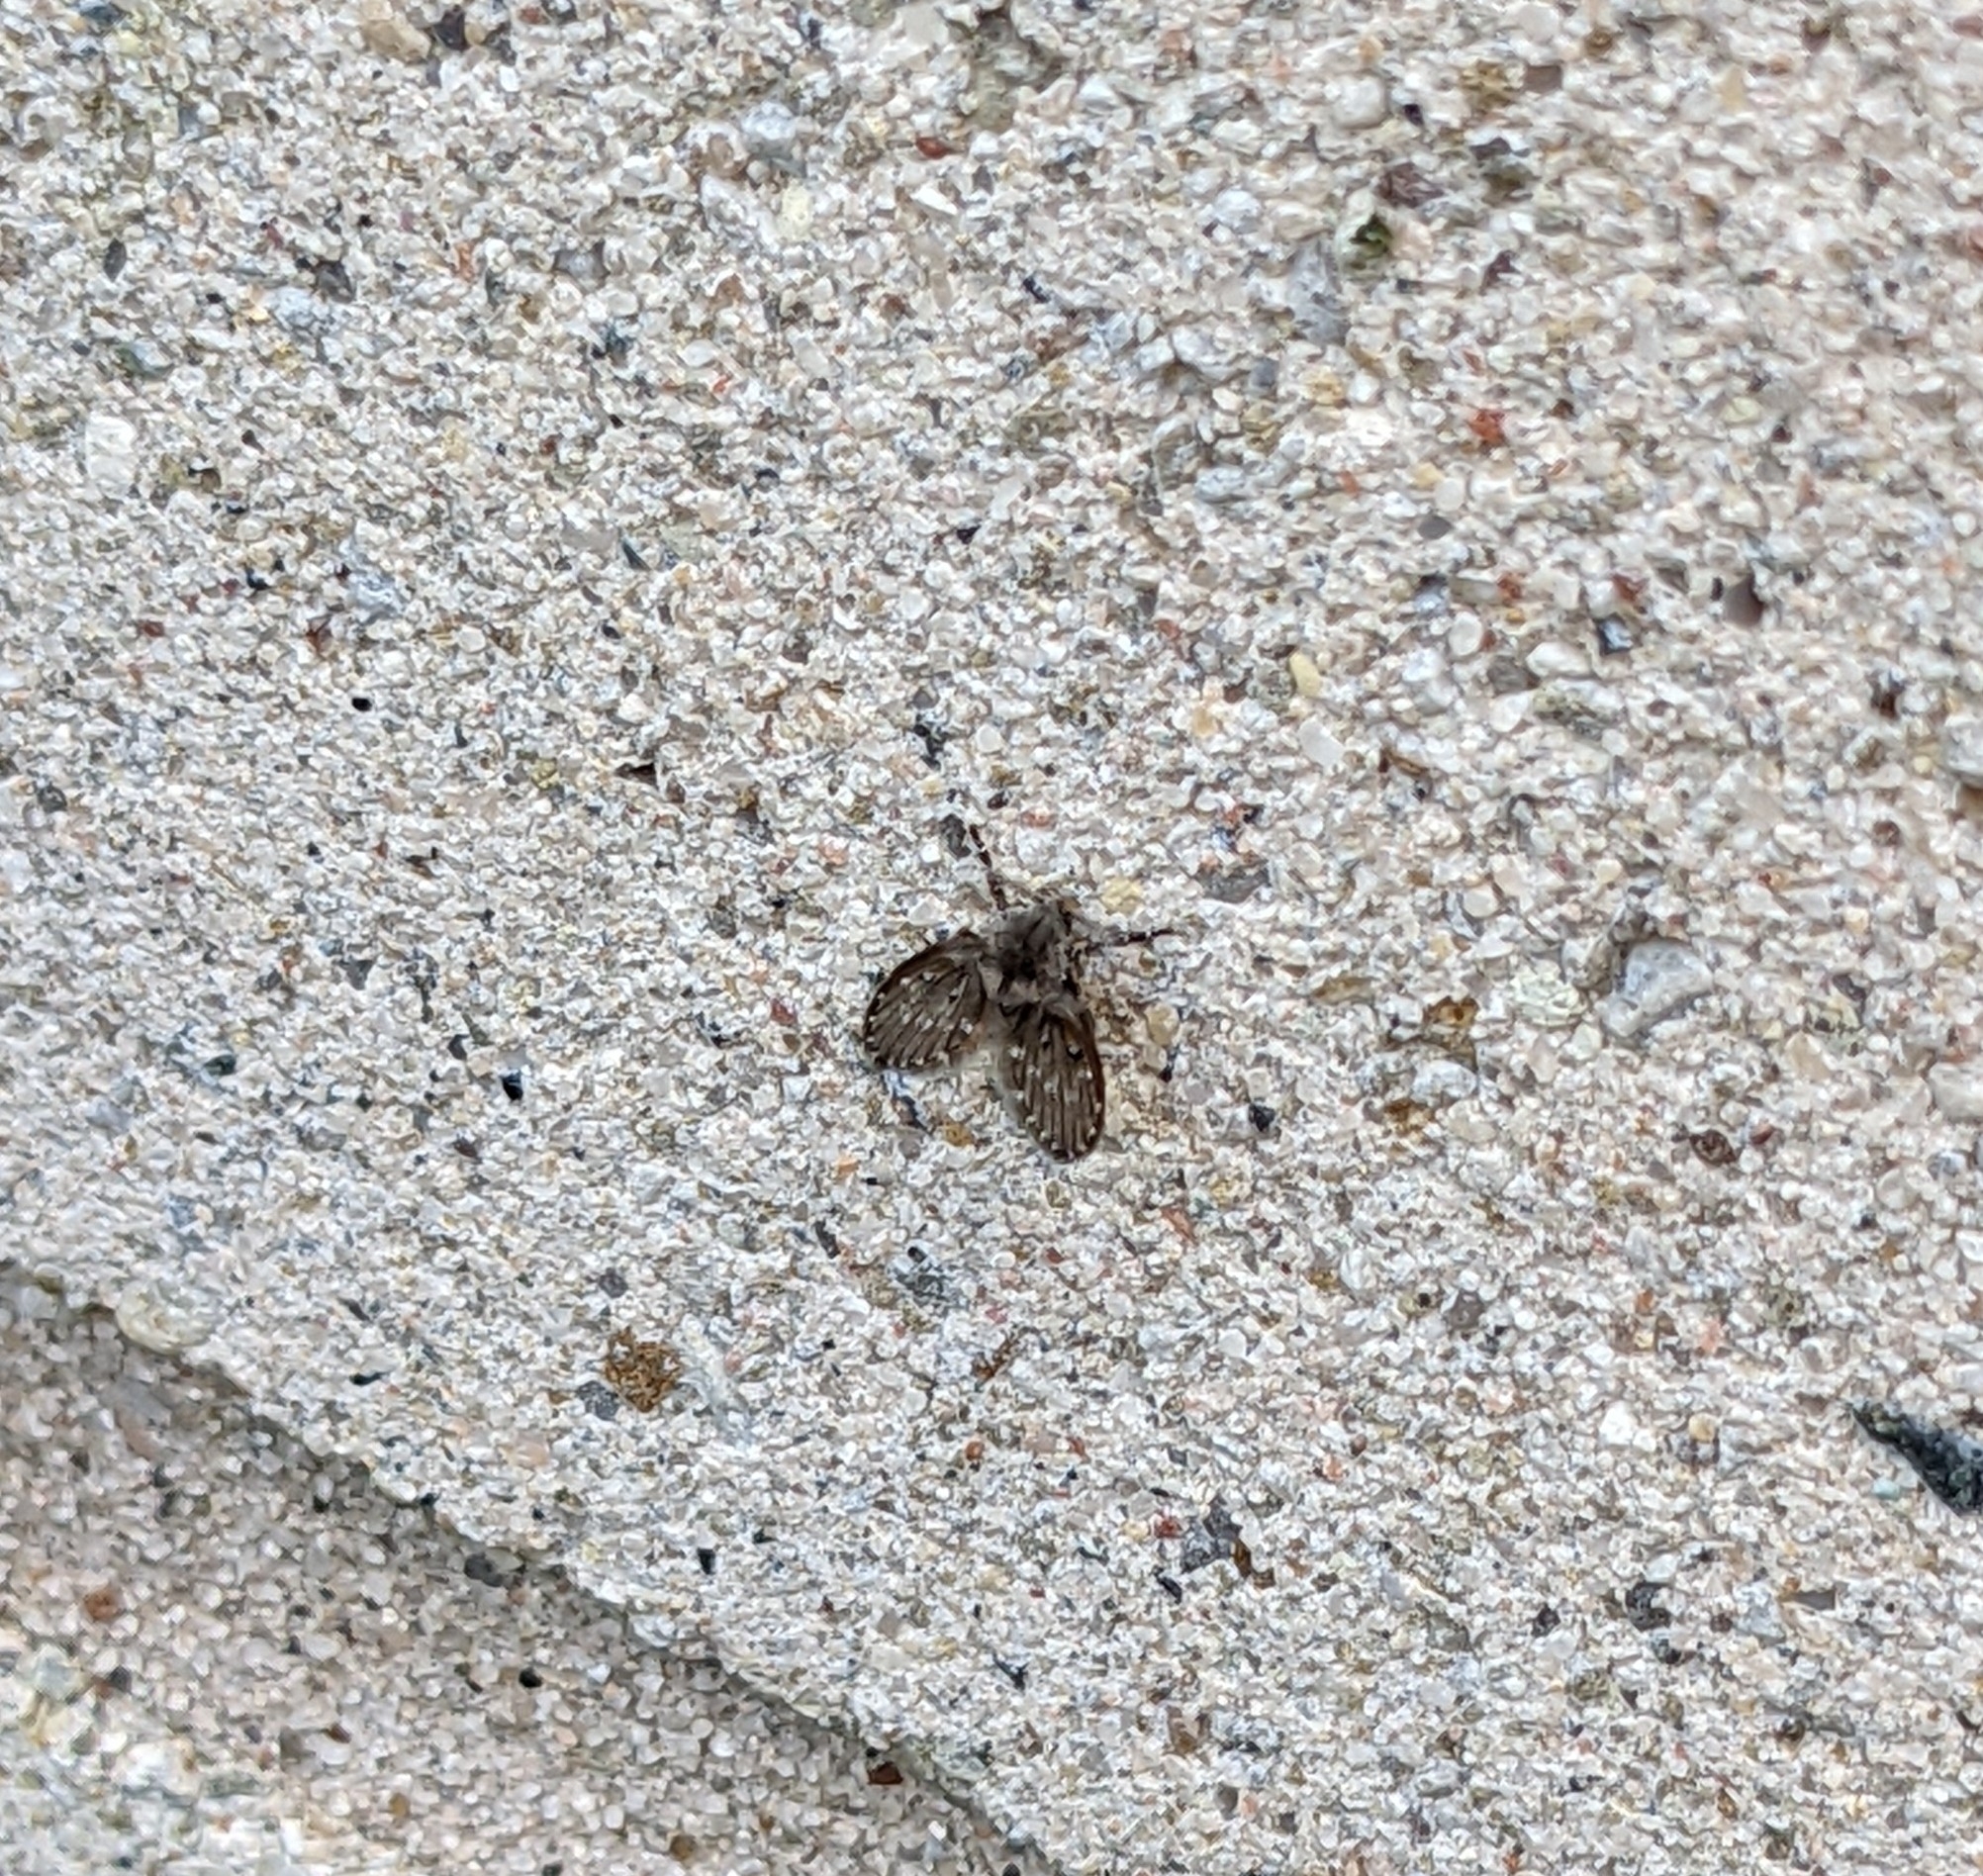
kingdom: Animalia
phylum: Arthropoda
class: Insecta
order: Diptera
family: Psychodidae
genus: Clogmia
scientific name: Clogmia albipunctatus
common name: White-spotted moth fly
